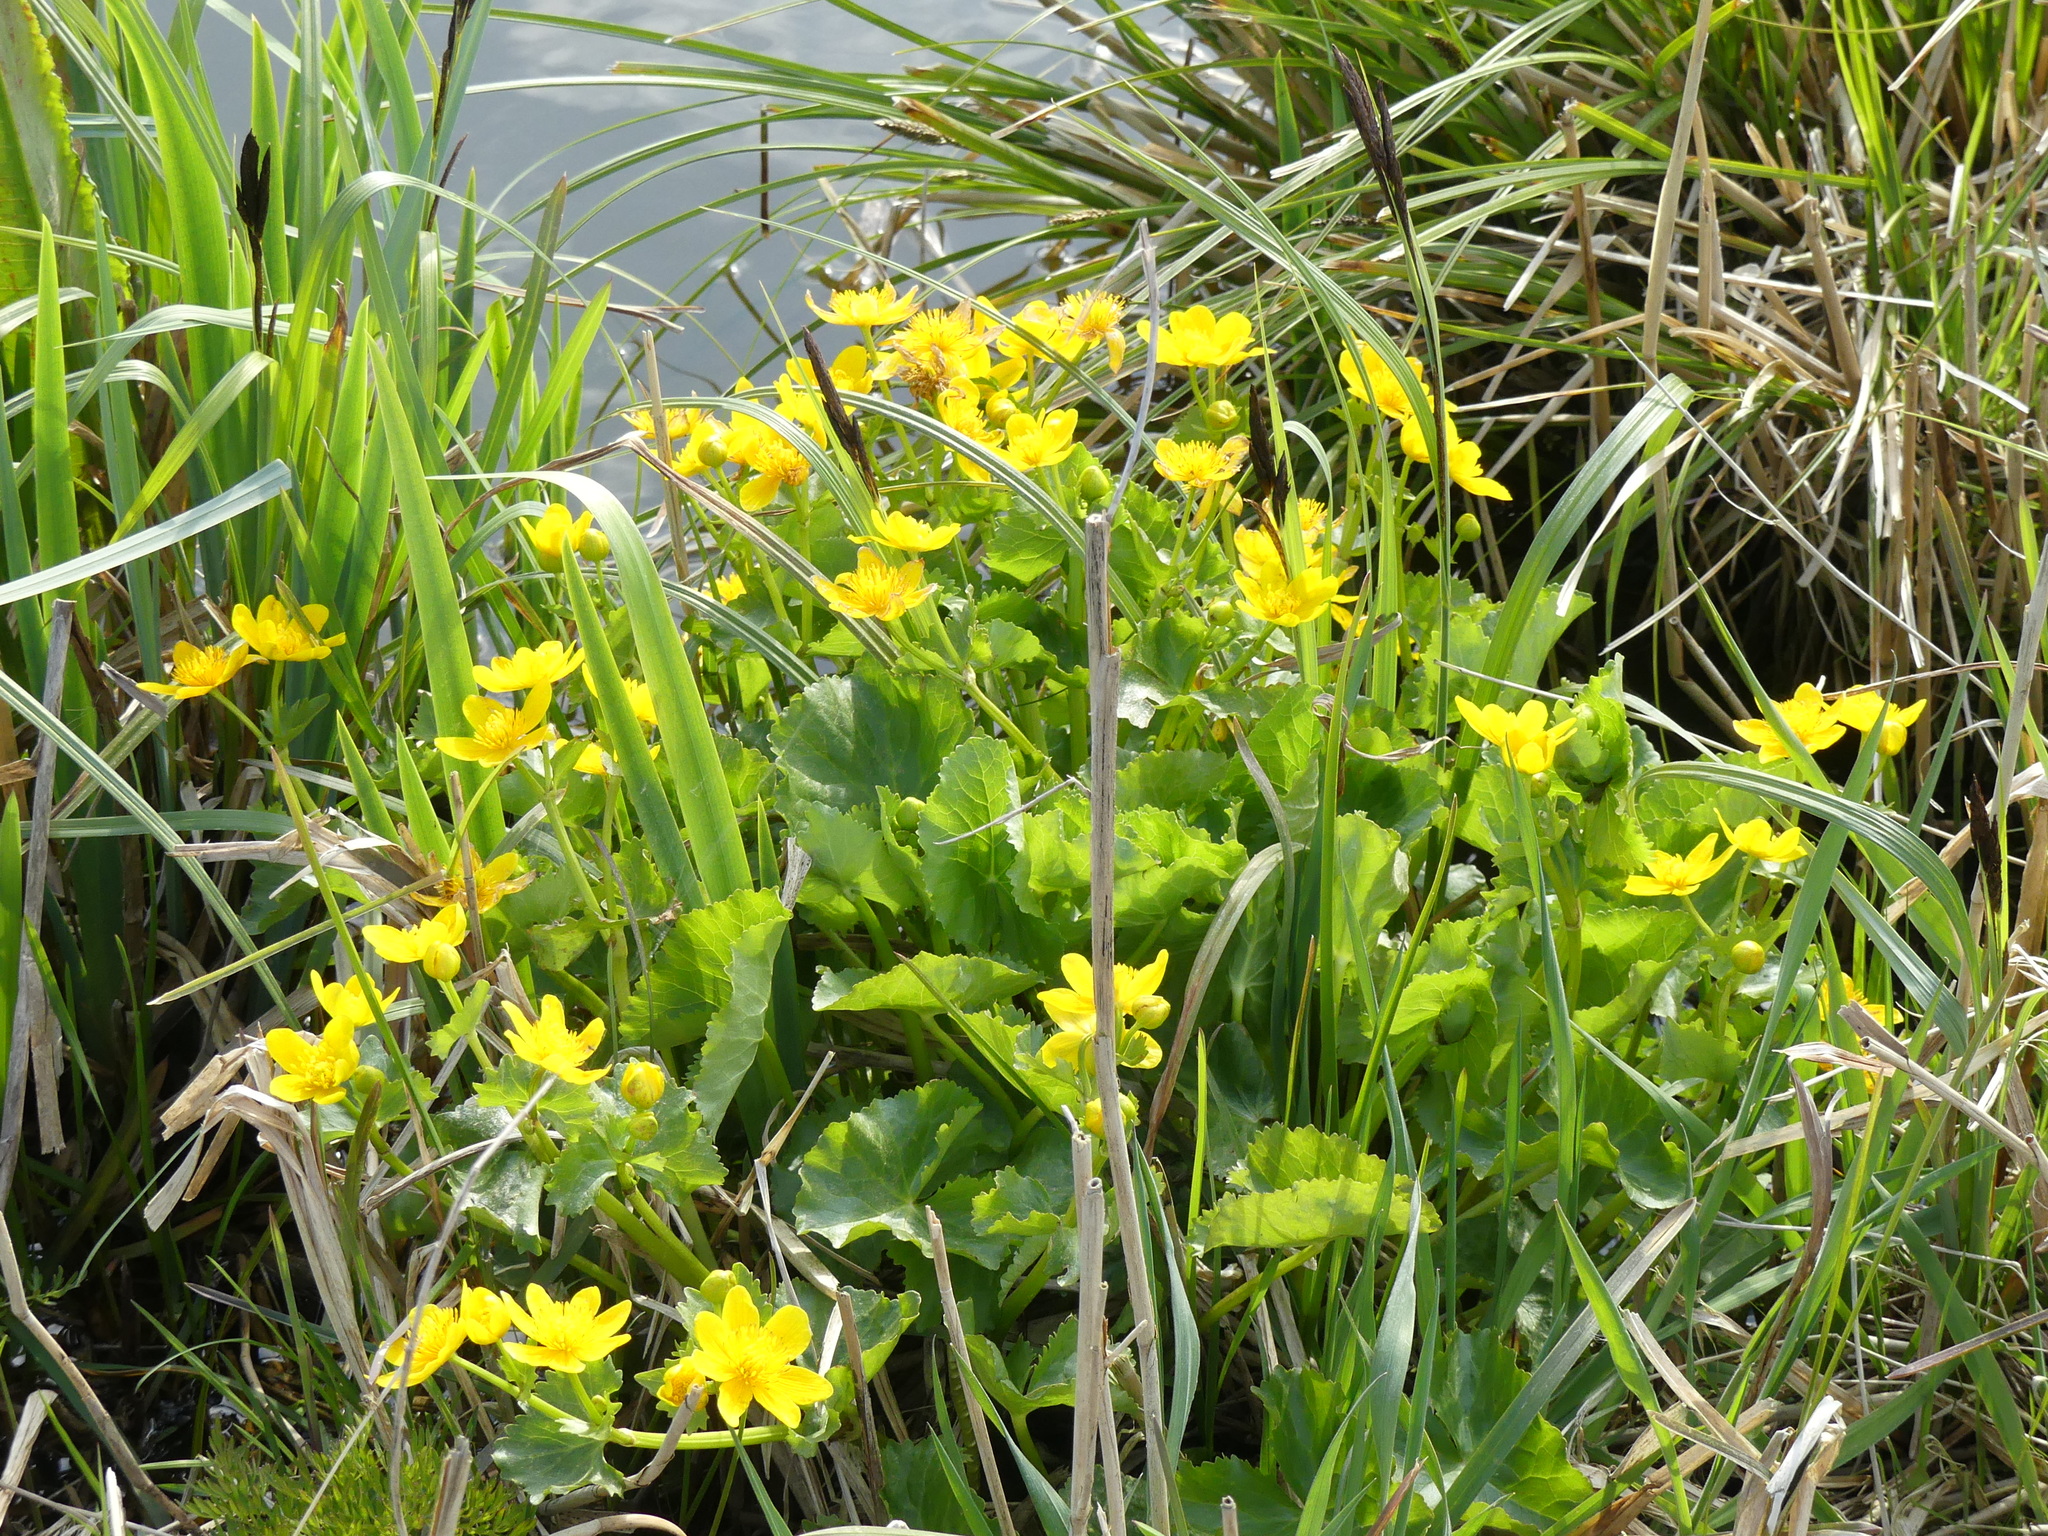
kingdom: Plantae
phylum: Tracheophyta
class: Magnoliopsida
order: Ranunculales
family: Ranunculaceae
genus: Caltha
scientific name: Caltha palustris
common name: Marsh marigold
